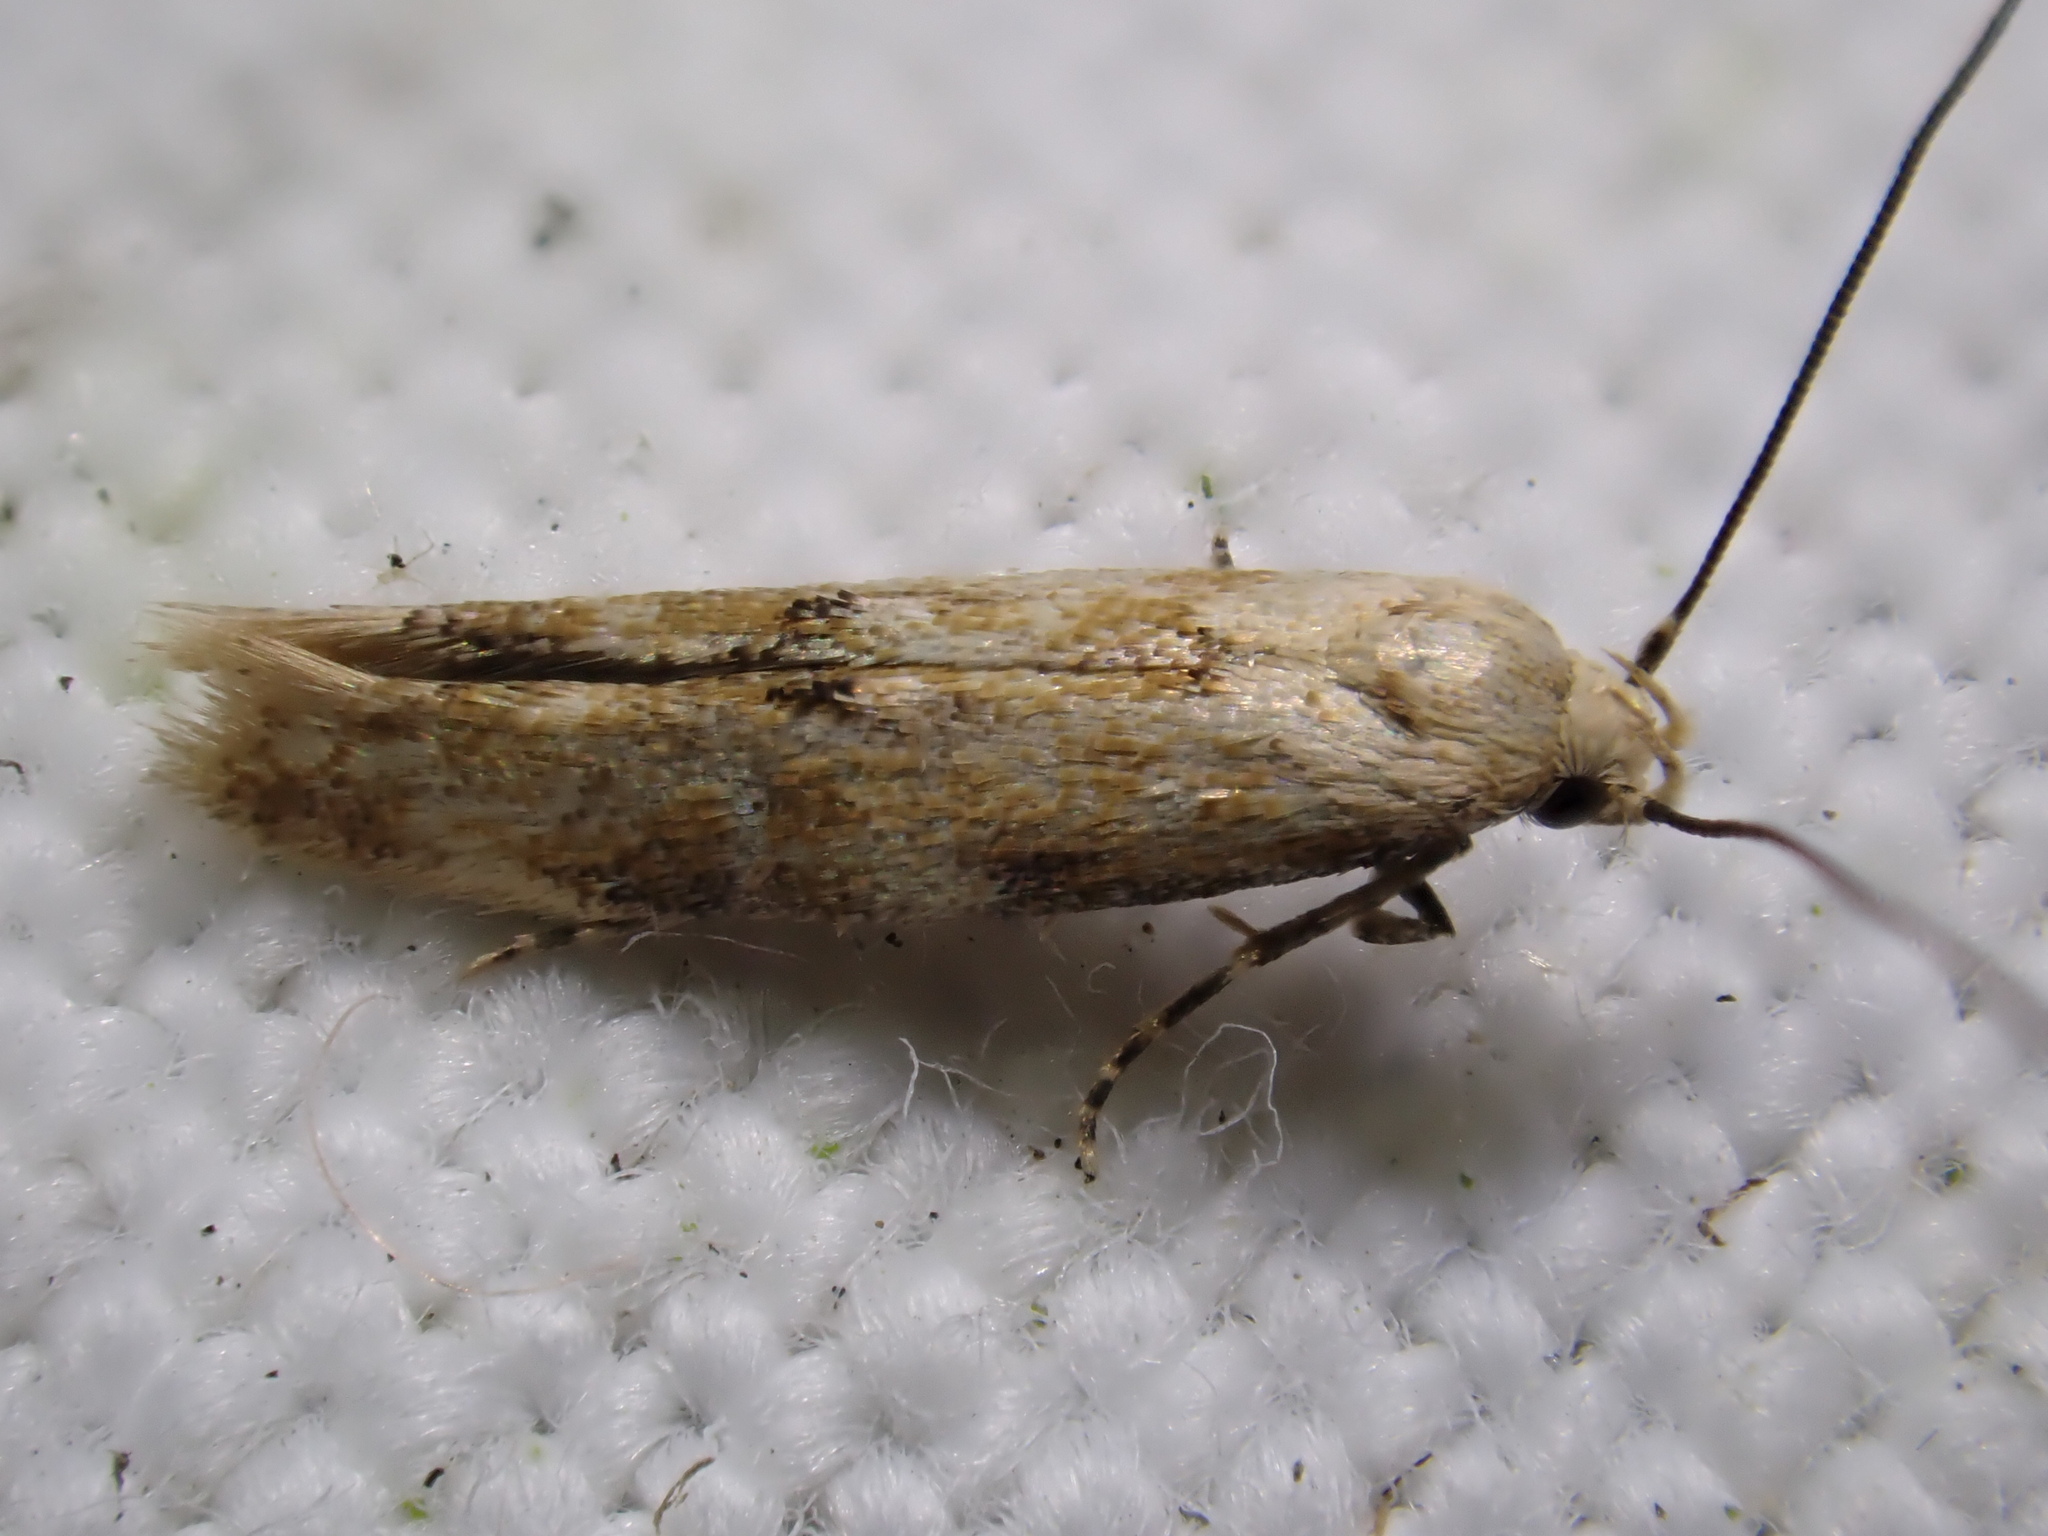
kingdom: Animalia
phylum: Arthropoda
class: Insecta
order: Lepidoptera
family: Momphidae
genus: Mompha
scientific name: Mompha epilobiella
